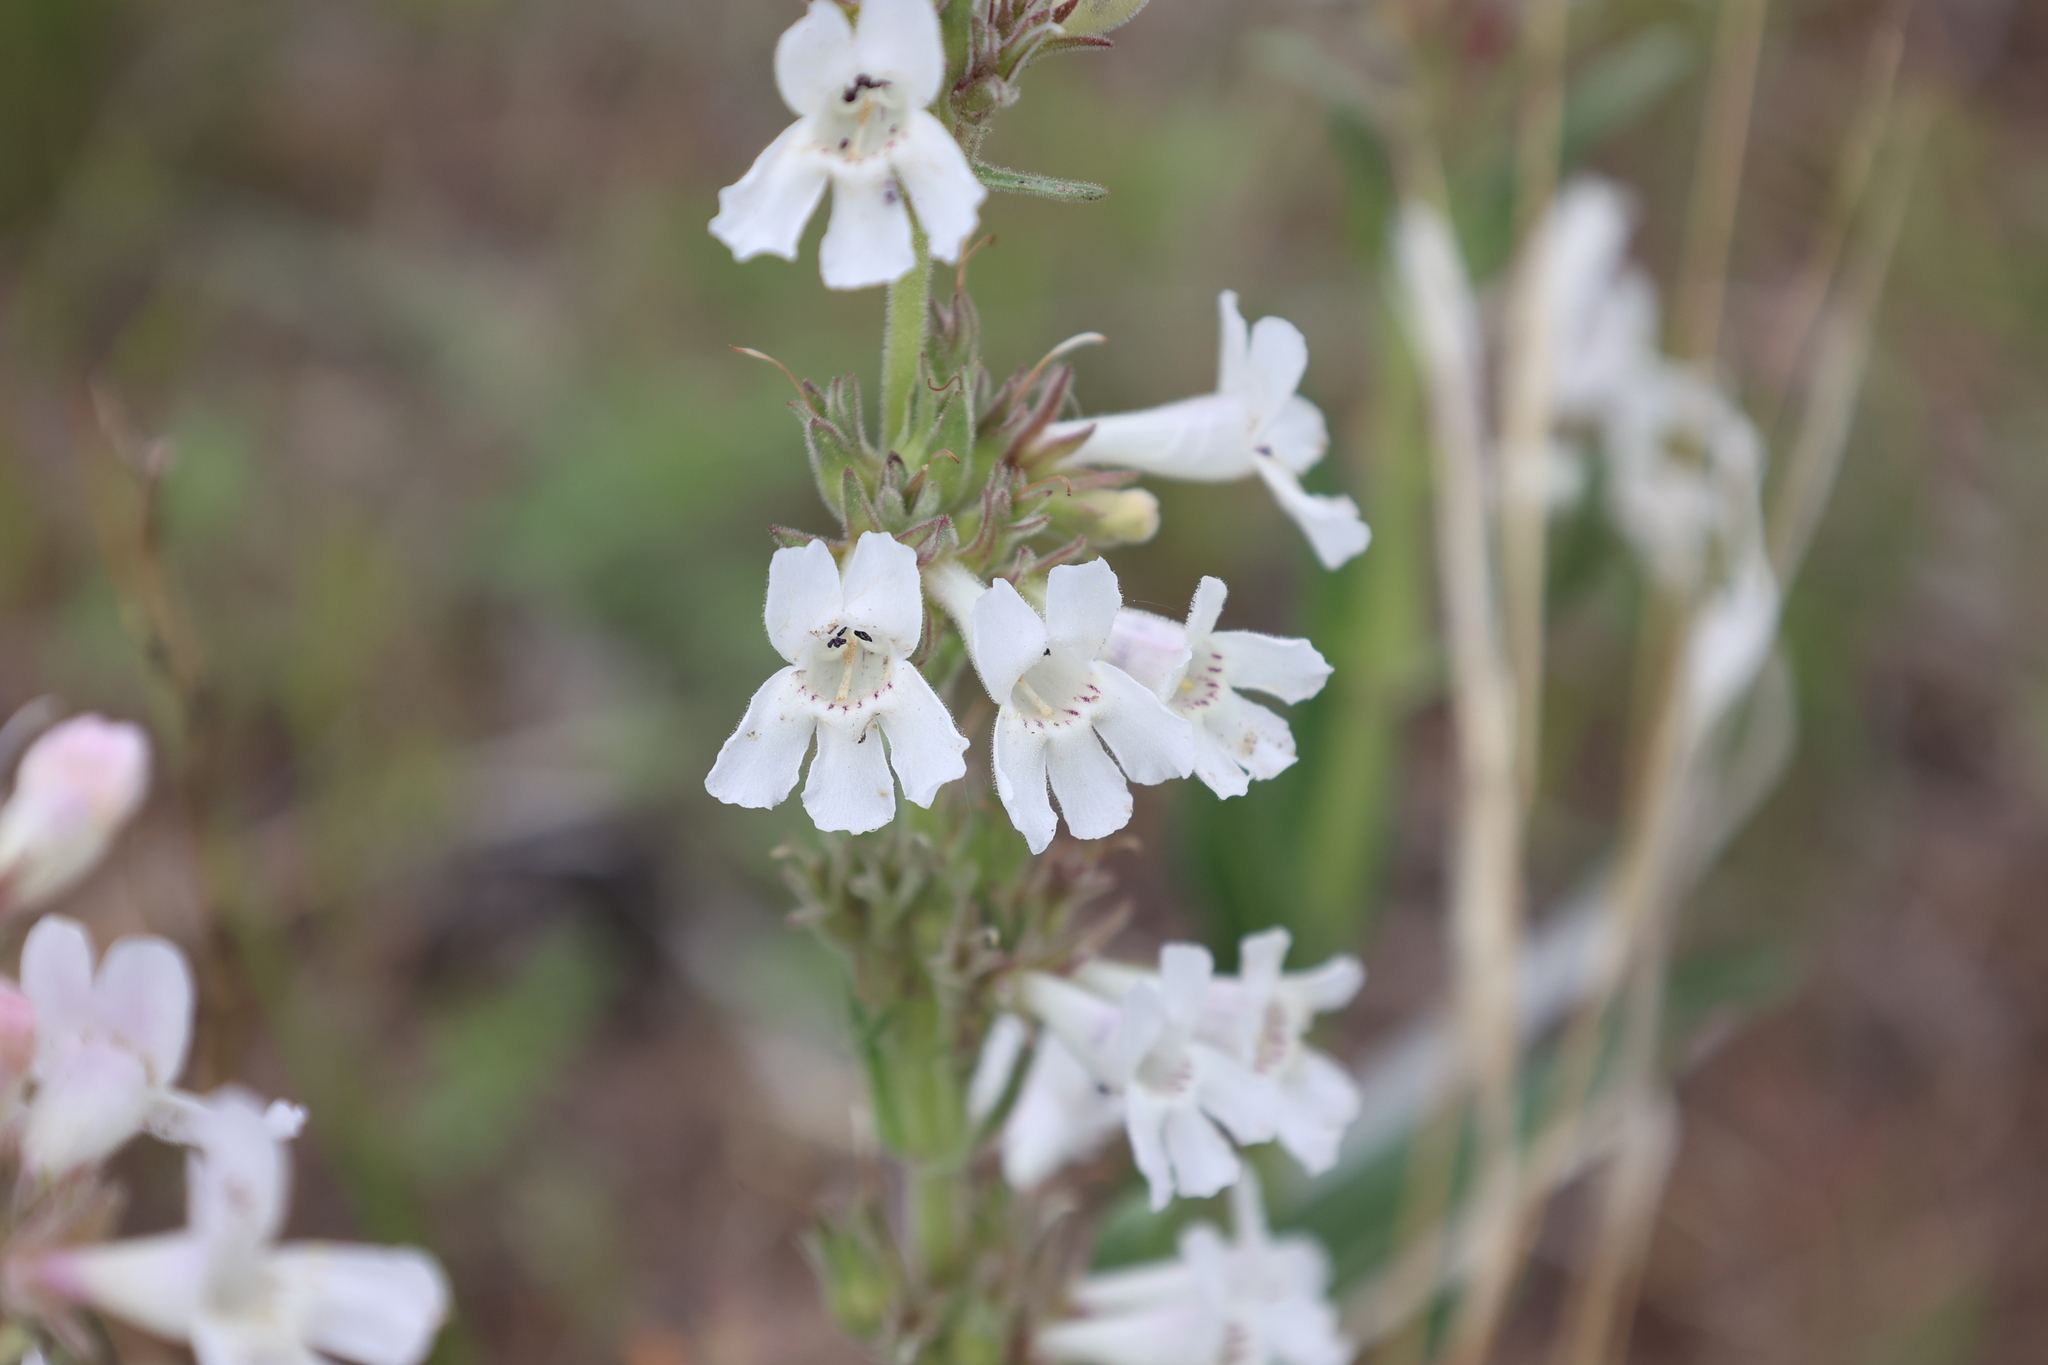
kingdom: Plantae
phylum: Tracheophyta
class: Magnoliopsida
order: Lamiales
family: Plantaginaceae
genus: Penstemon
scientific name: Penstemon albidus
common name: White beardtongue
